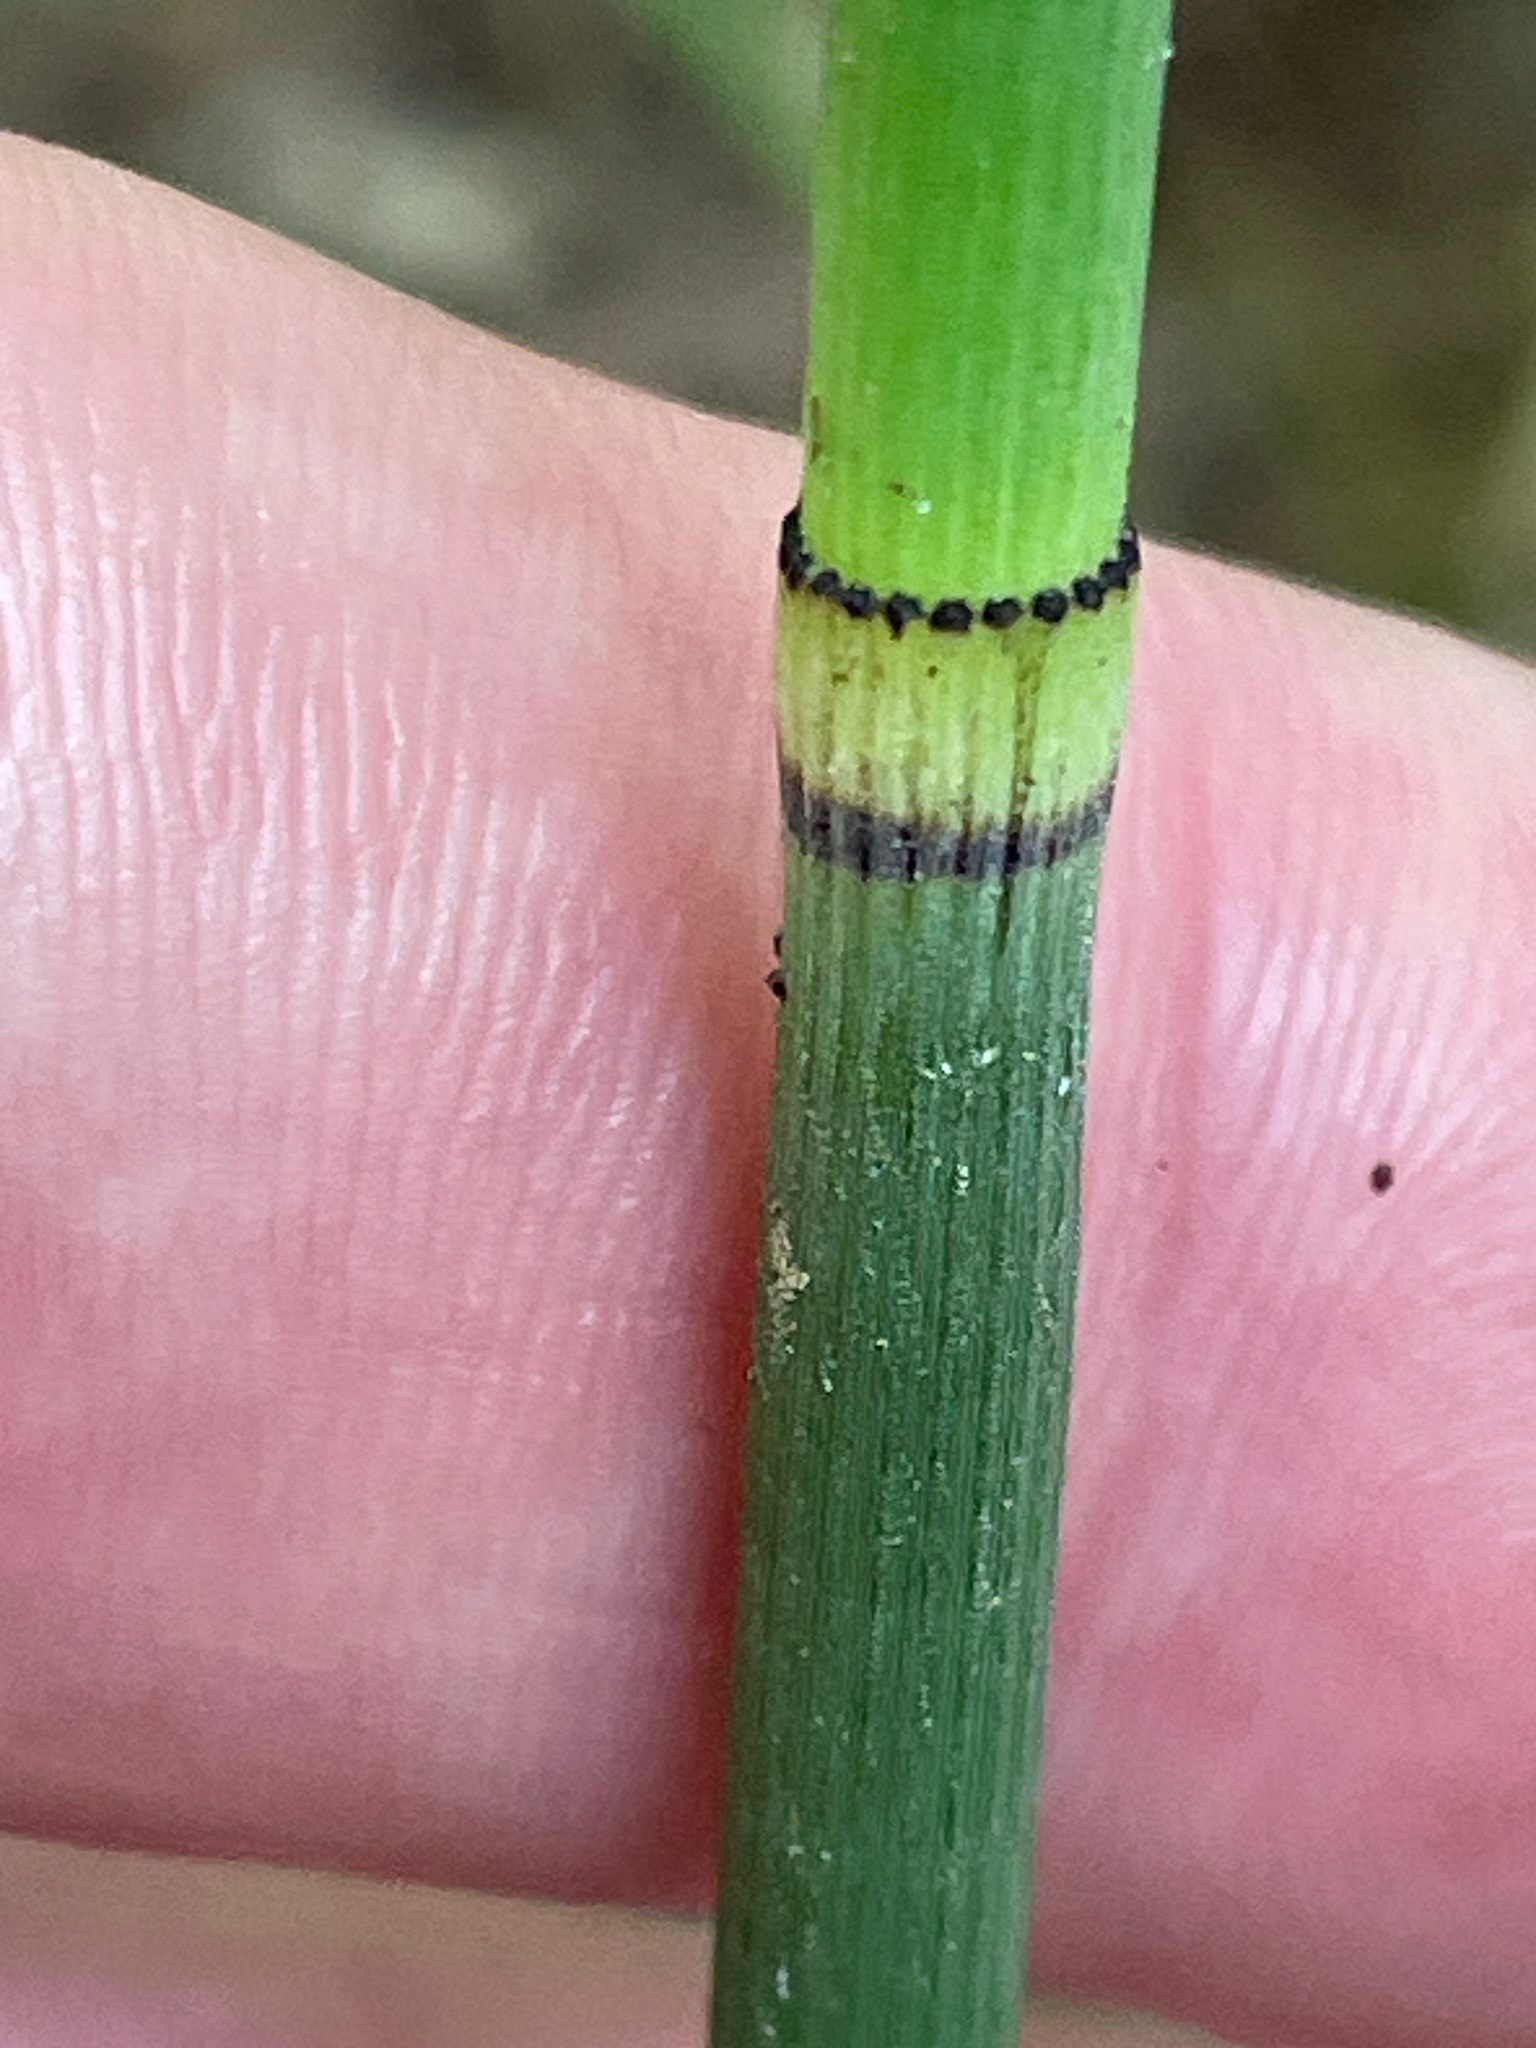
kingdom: Plantae
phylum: Tracheophyta
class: Polypodiopsida
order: Equisetales
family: Equisetaceae
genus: Equisetum
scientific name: Equisetum hyemale
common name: Rough horsetail
